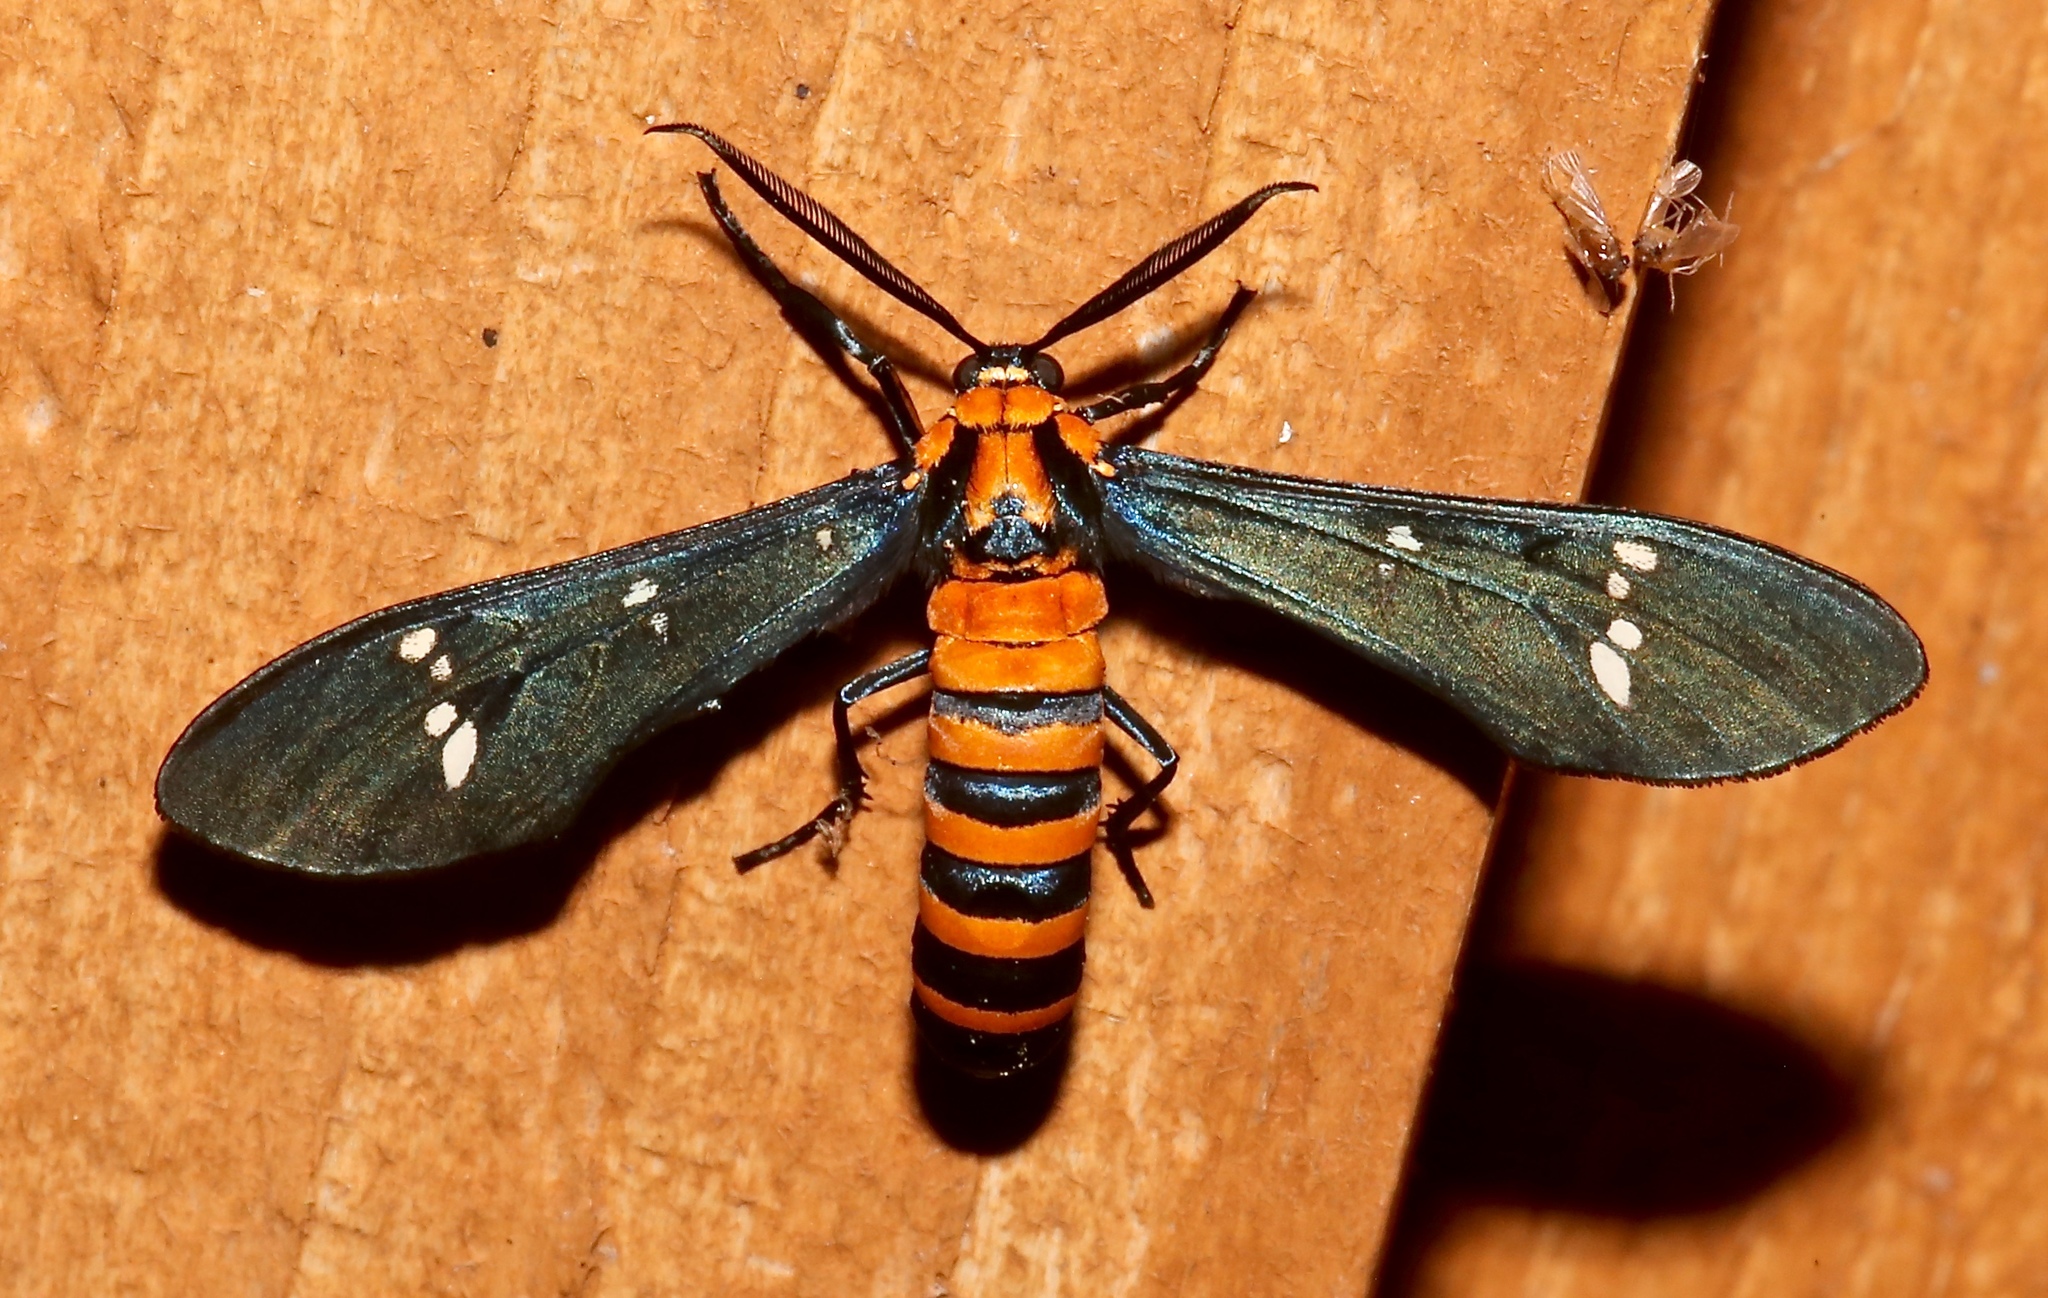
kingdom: Animalia
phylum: Arthropoda
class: Insecta
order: Lepidoptera
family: Erebidae
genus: Syntomeida
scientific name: Syntomeida ipomoeae
